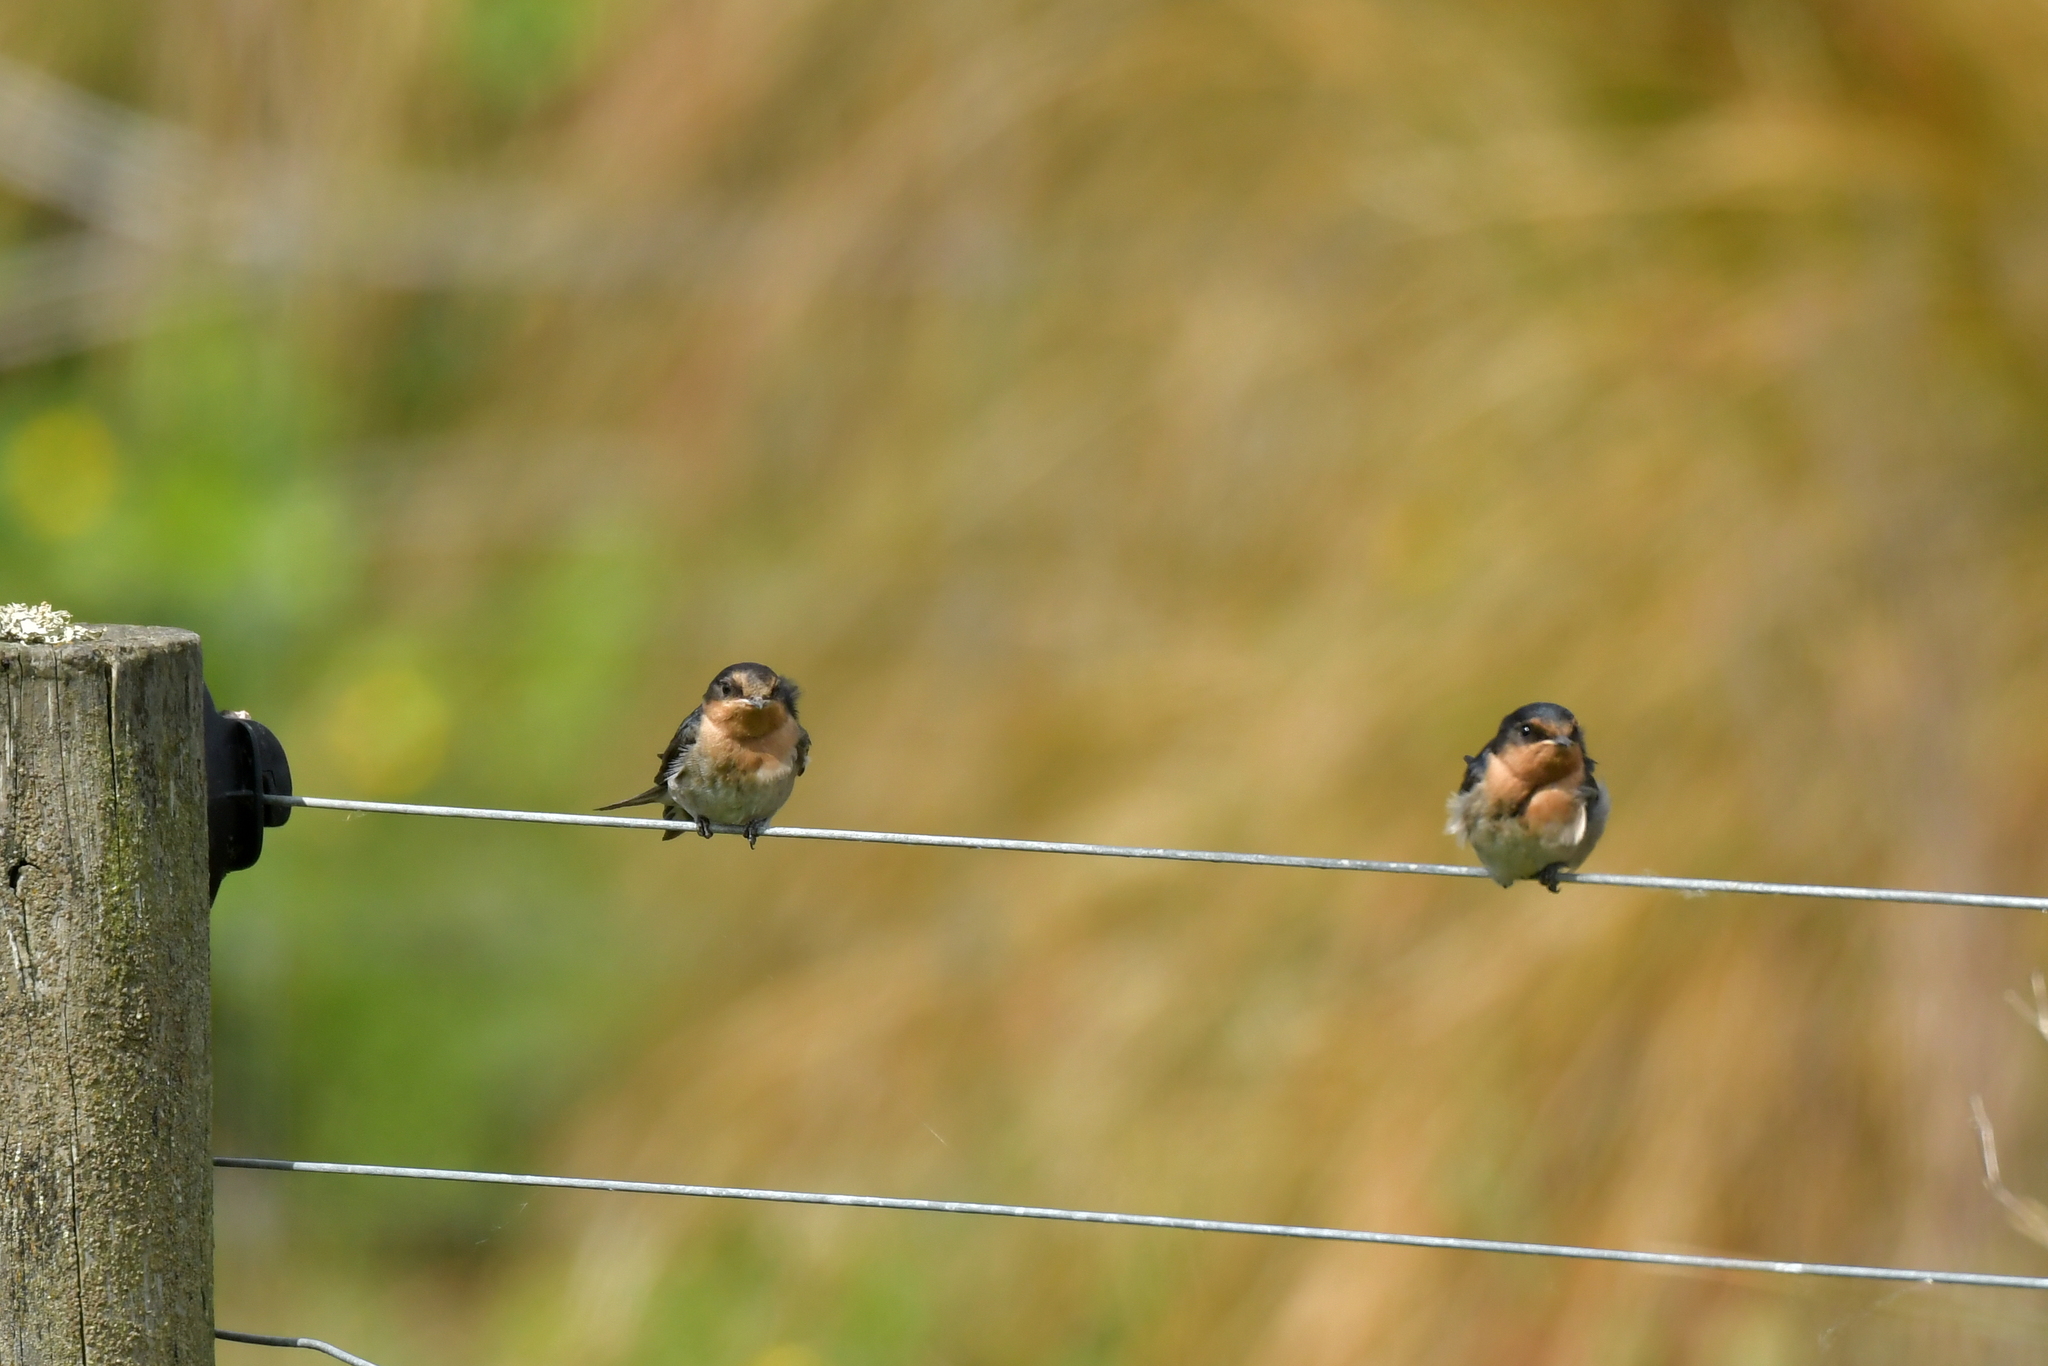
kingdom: Animalia
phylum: Chordata
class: Aves
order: Passeriformes
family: Hirundinidae
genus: Hirundo
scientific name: Hirundo neoxena
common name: Welcome swallow
